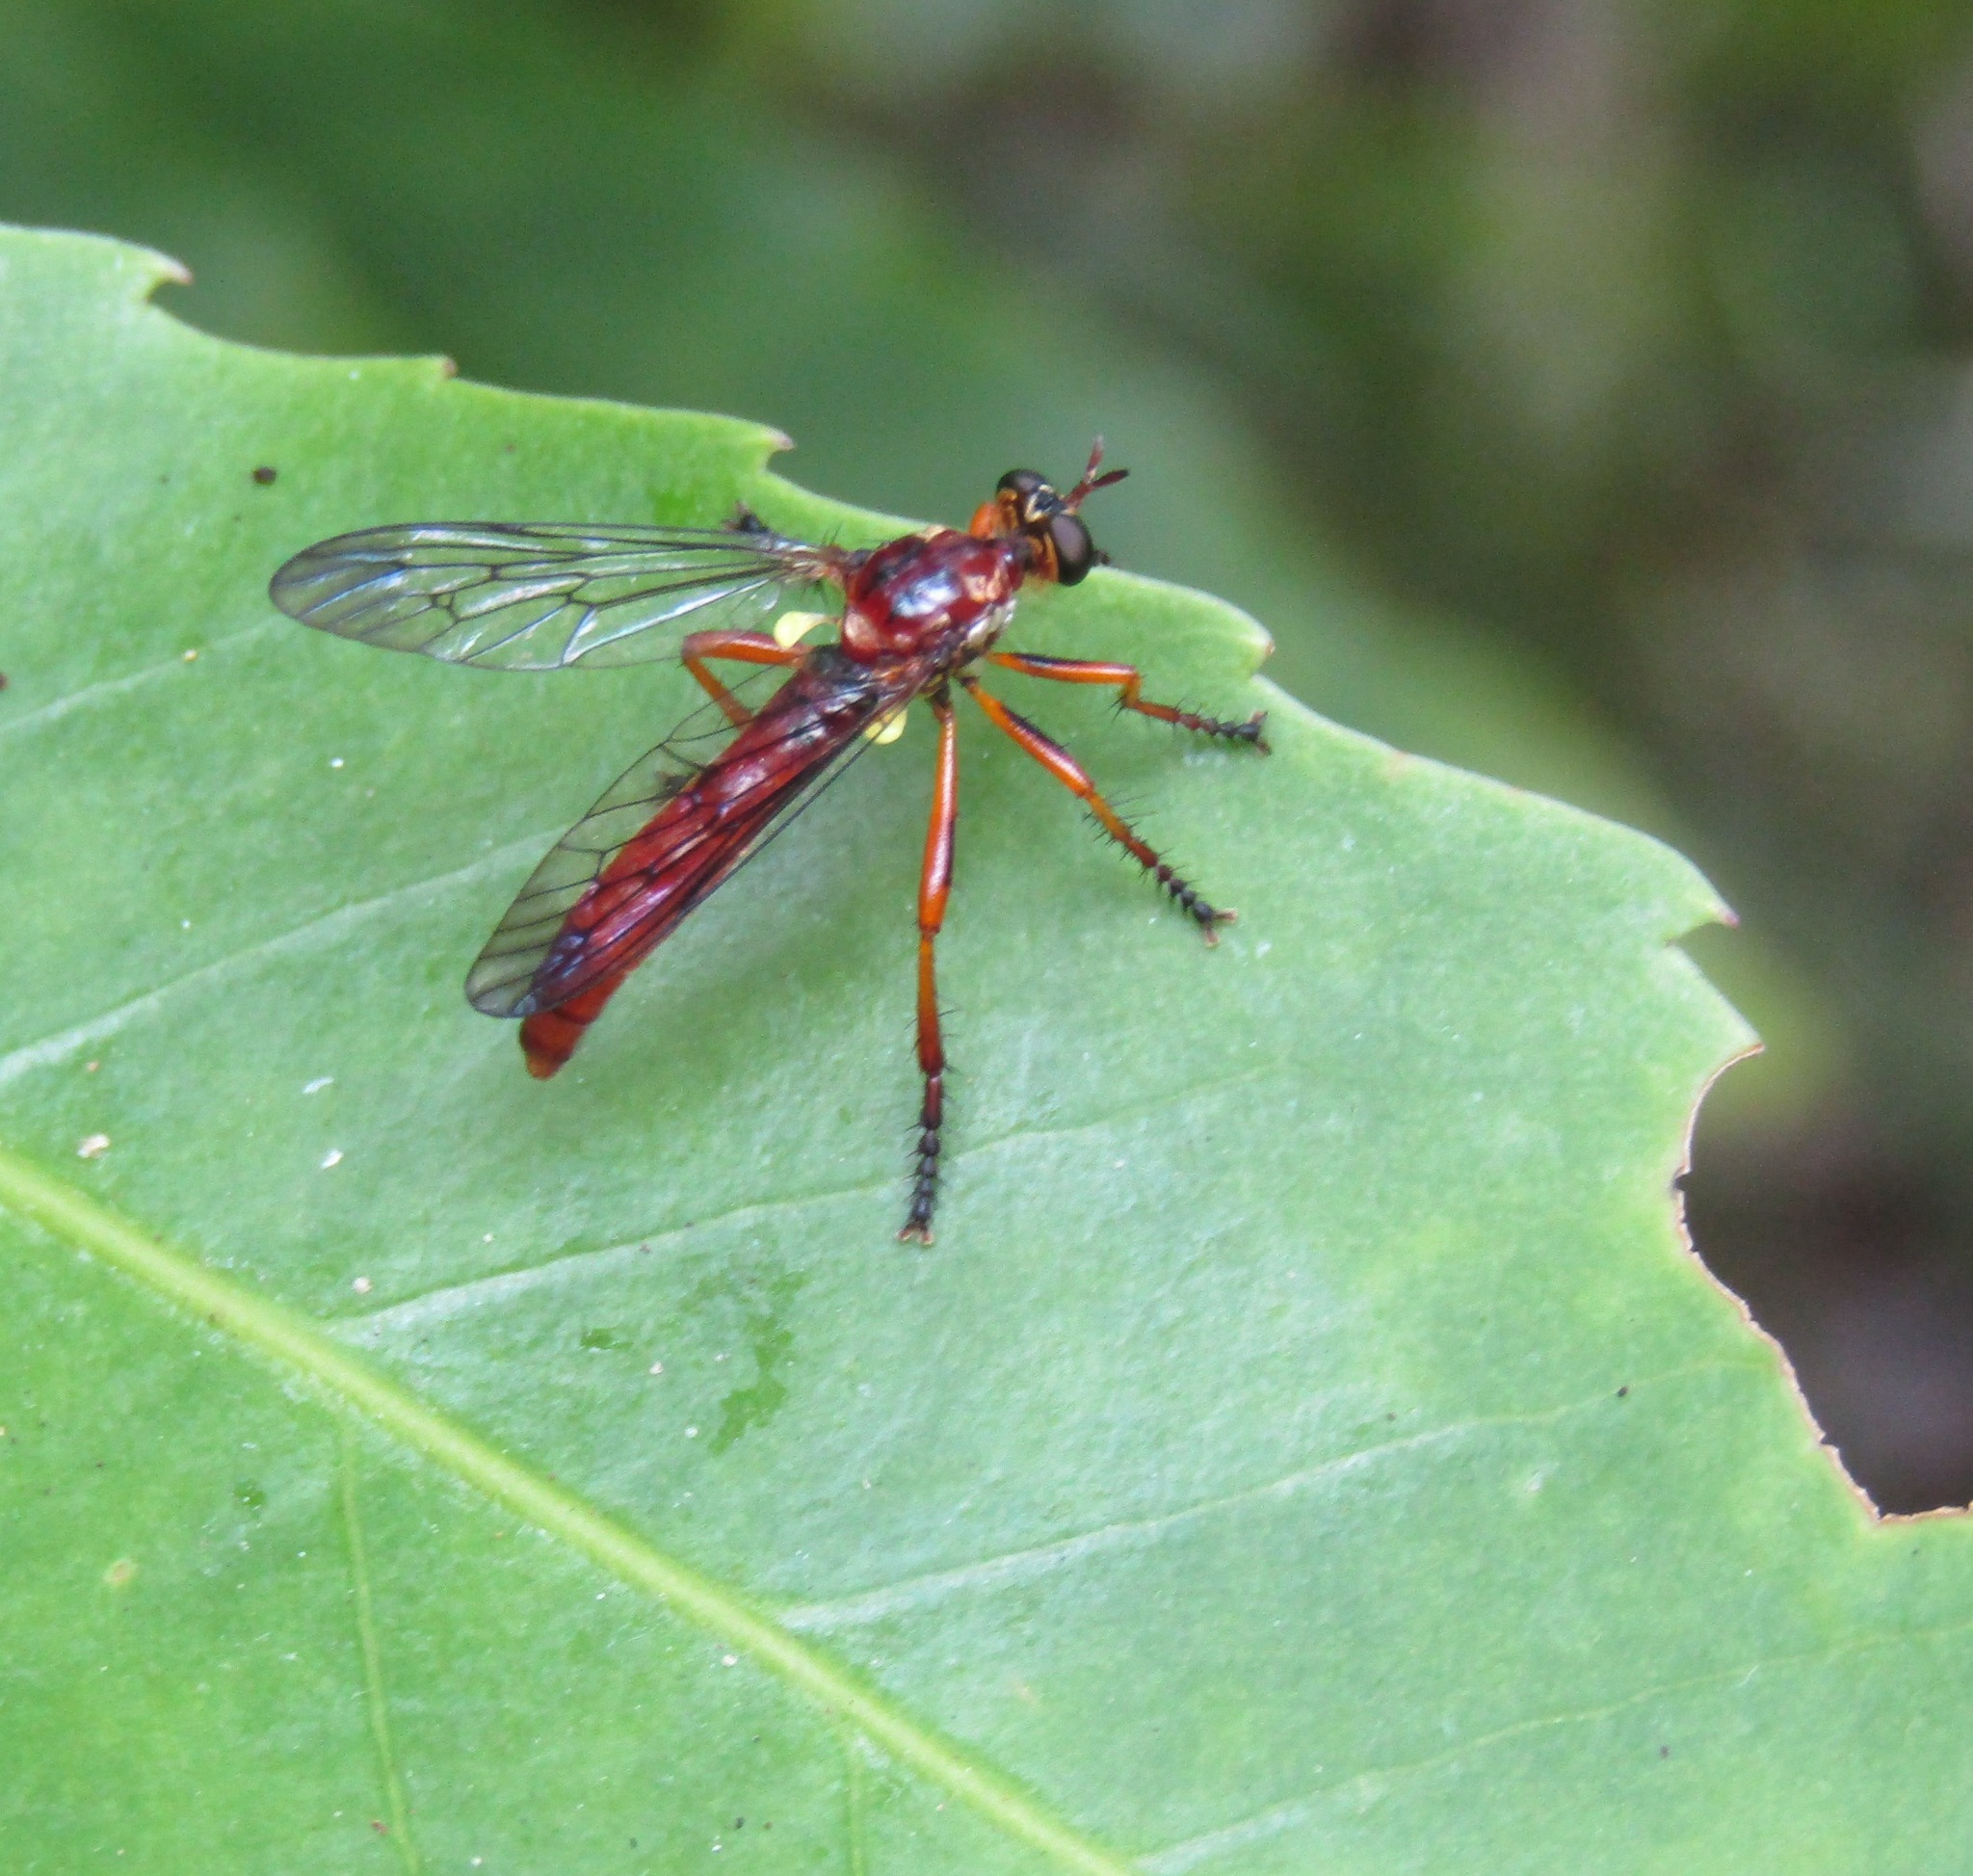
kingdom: Animalia
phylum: Arthropoda
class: Insecta
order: Diptera
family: Asilidae
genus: Saropogon
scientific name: Saropogon antipodus
